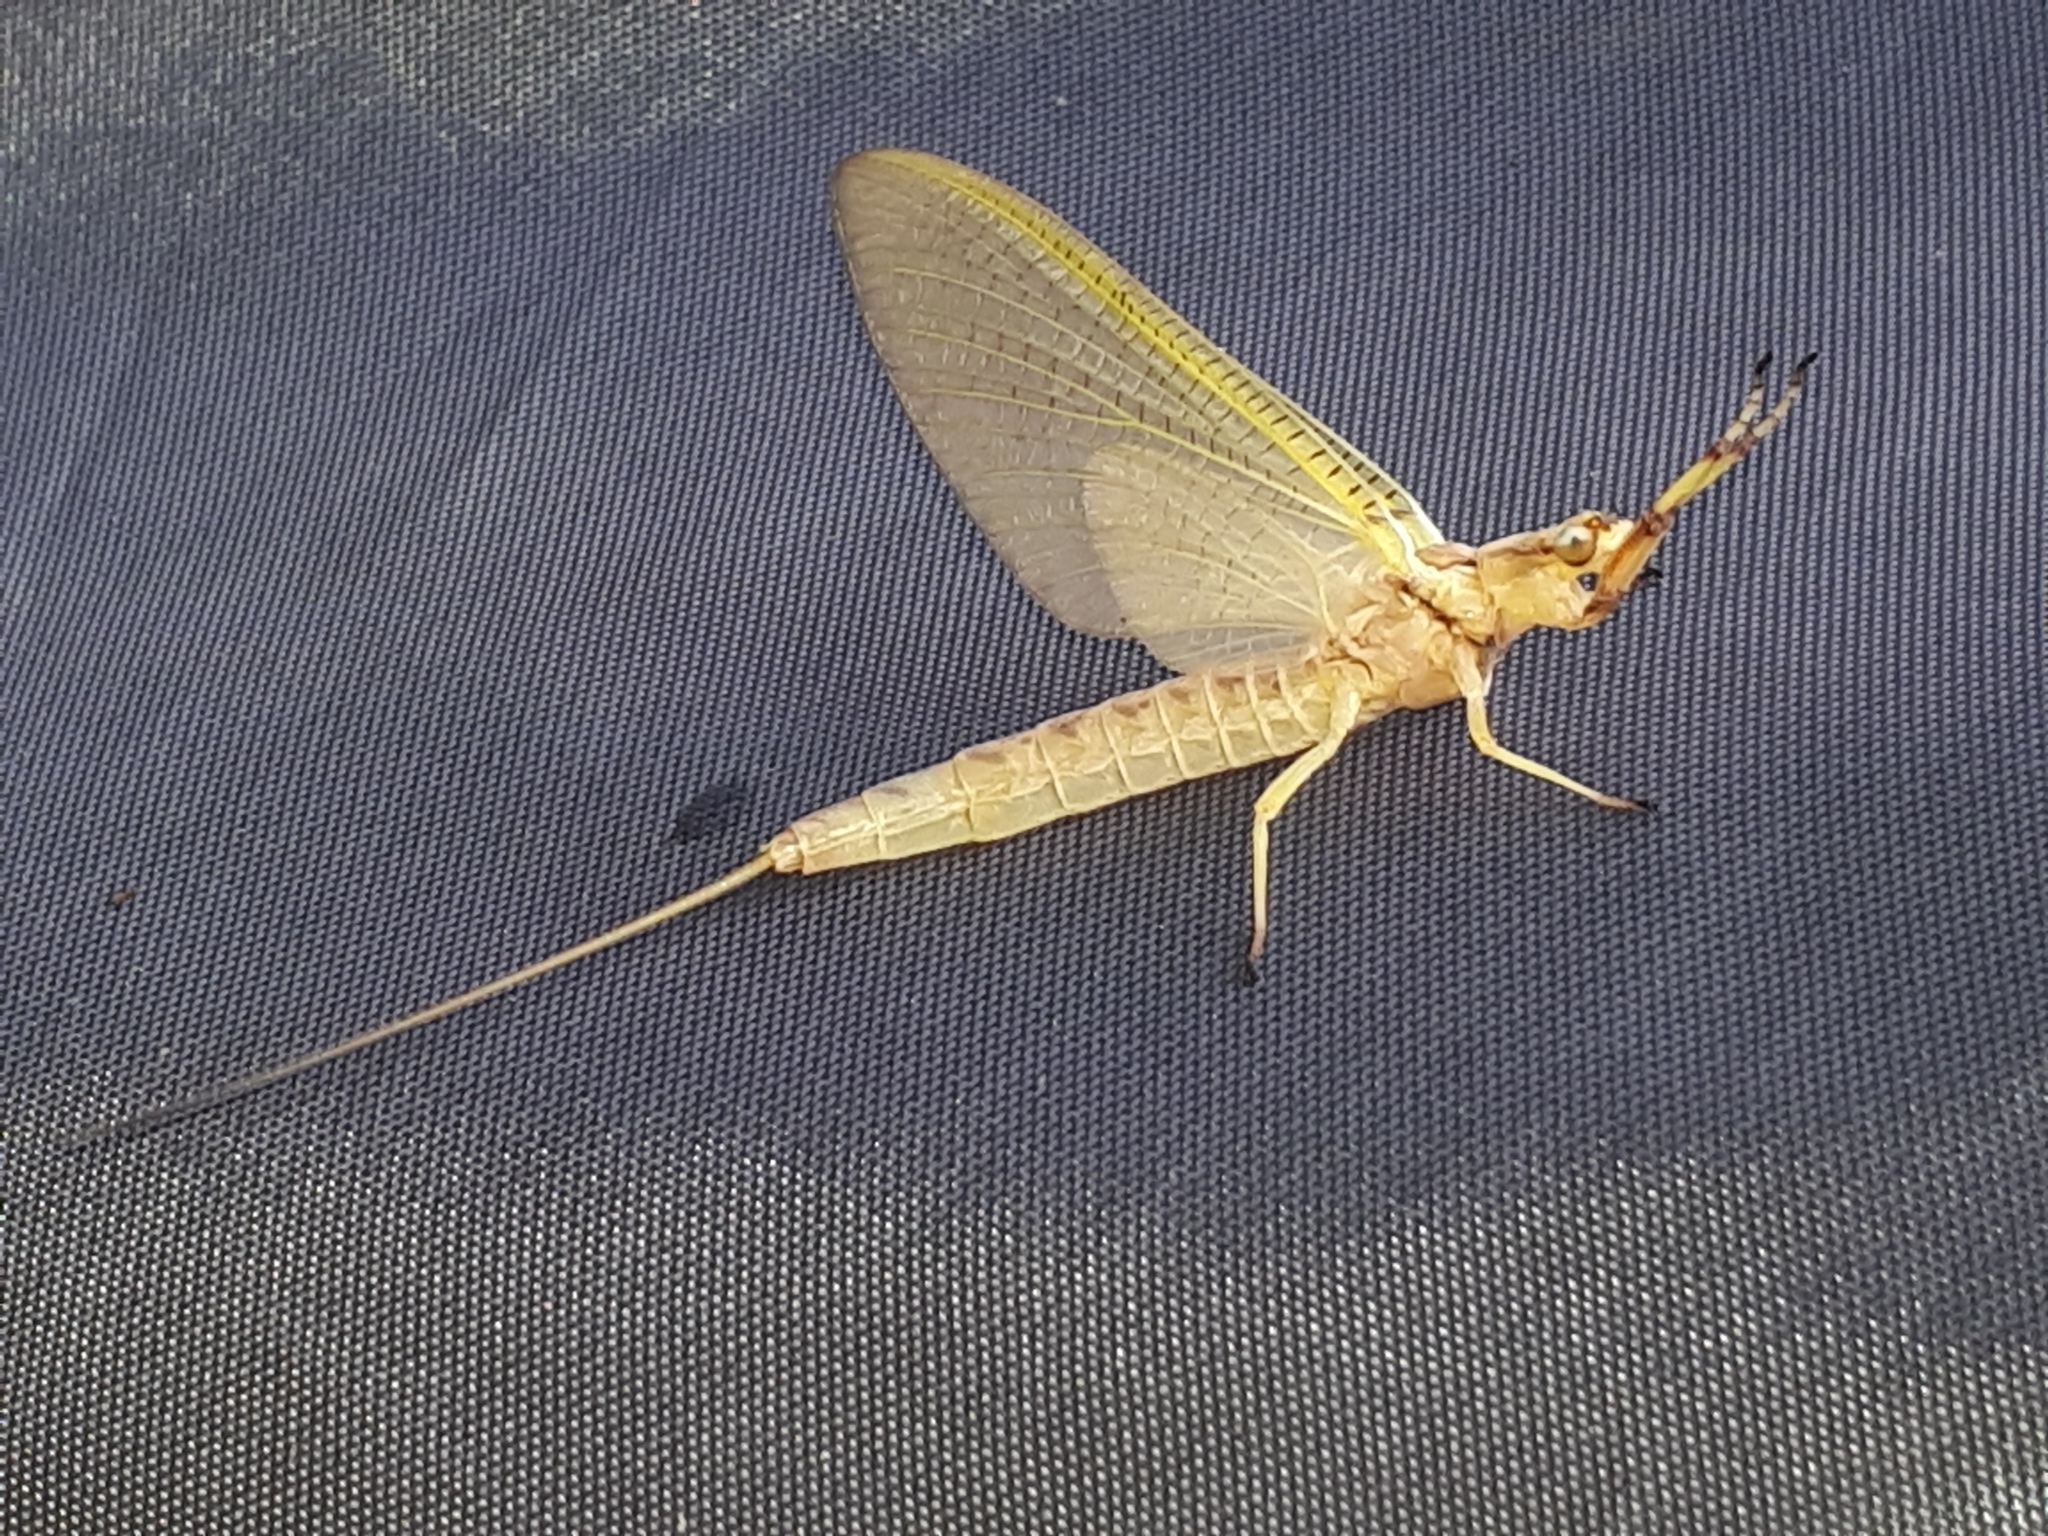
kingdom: Animalia
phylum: Arthropoda
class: Insecta
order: Ephemeroptera
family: Ephemeridae
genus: Hexagenia
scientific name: Hexagenia limbata
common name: Giant mayfly
